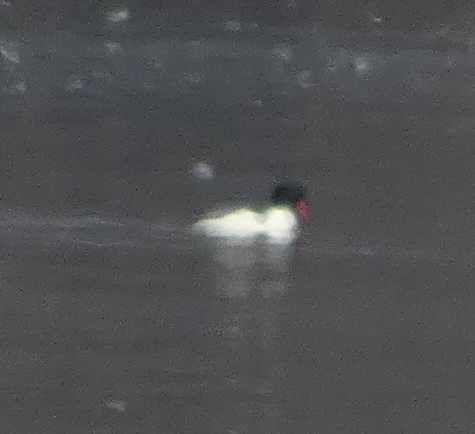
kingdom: Animalia
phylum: Chordata
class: Aves
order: Anseriformes
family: Anatidae
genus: Mergus
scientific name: Mergus merganser
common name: Common merganser
